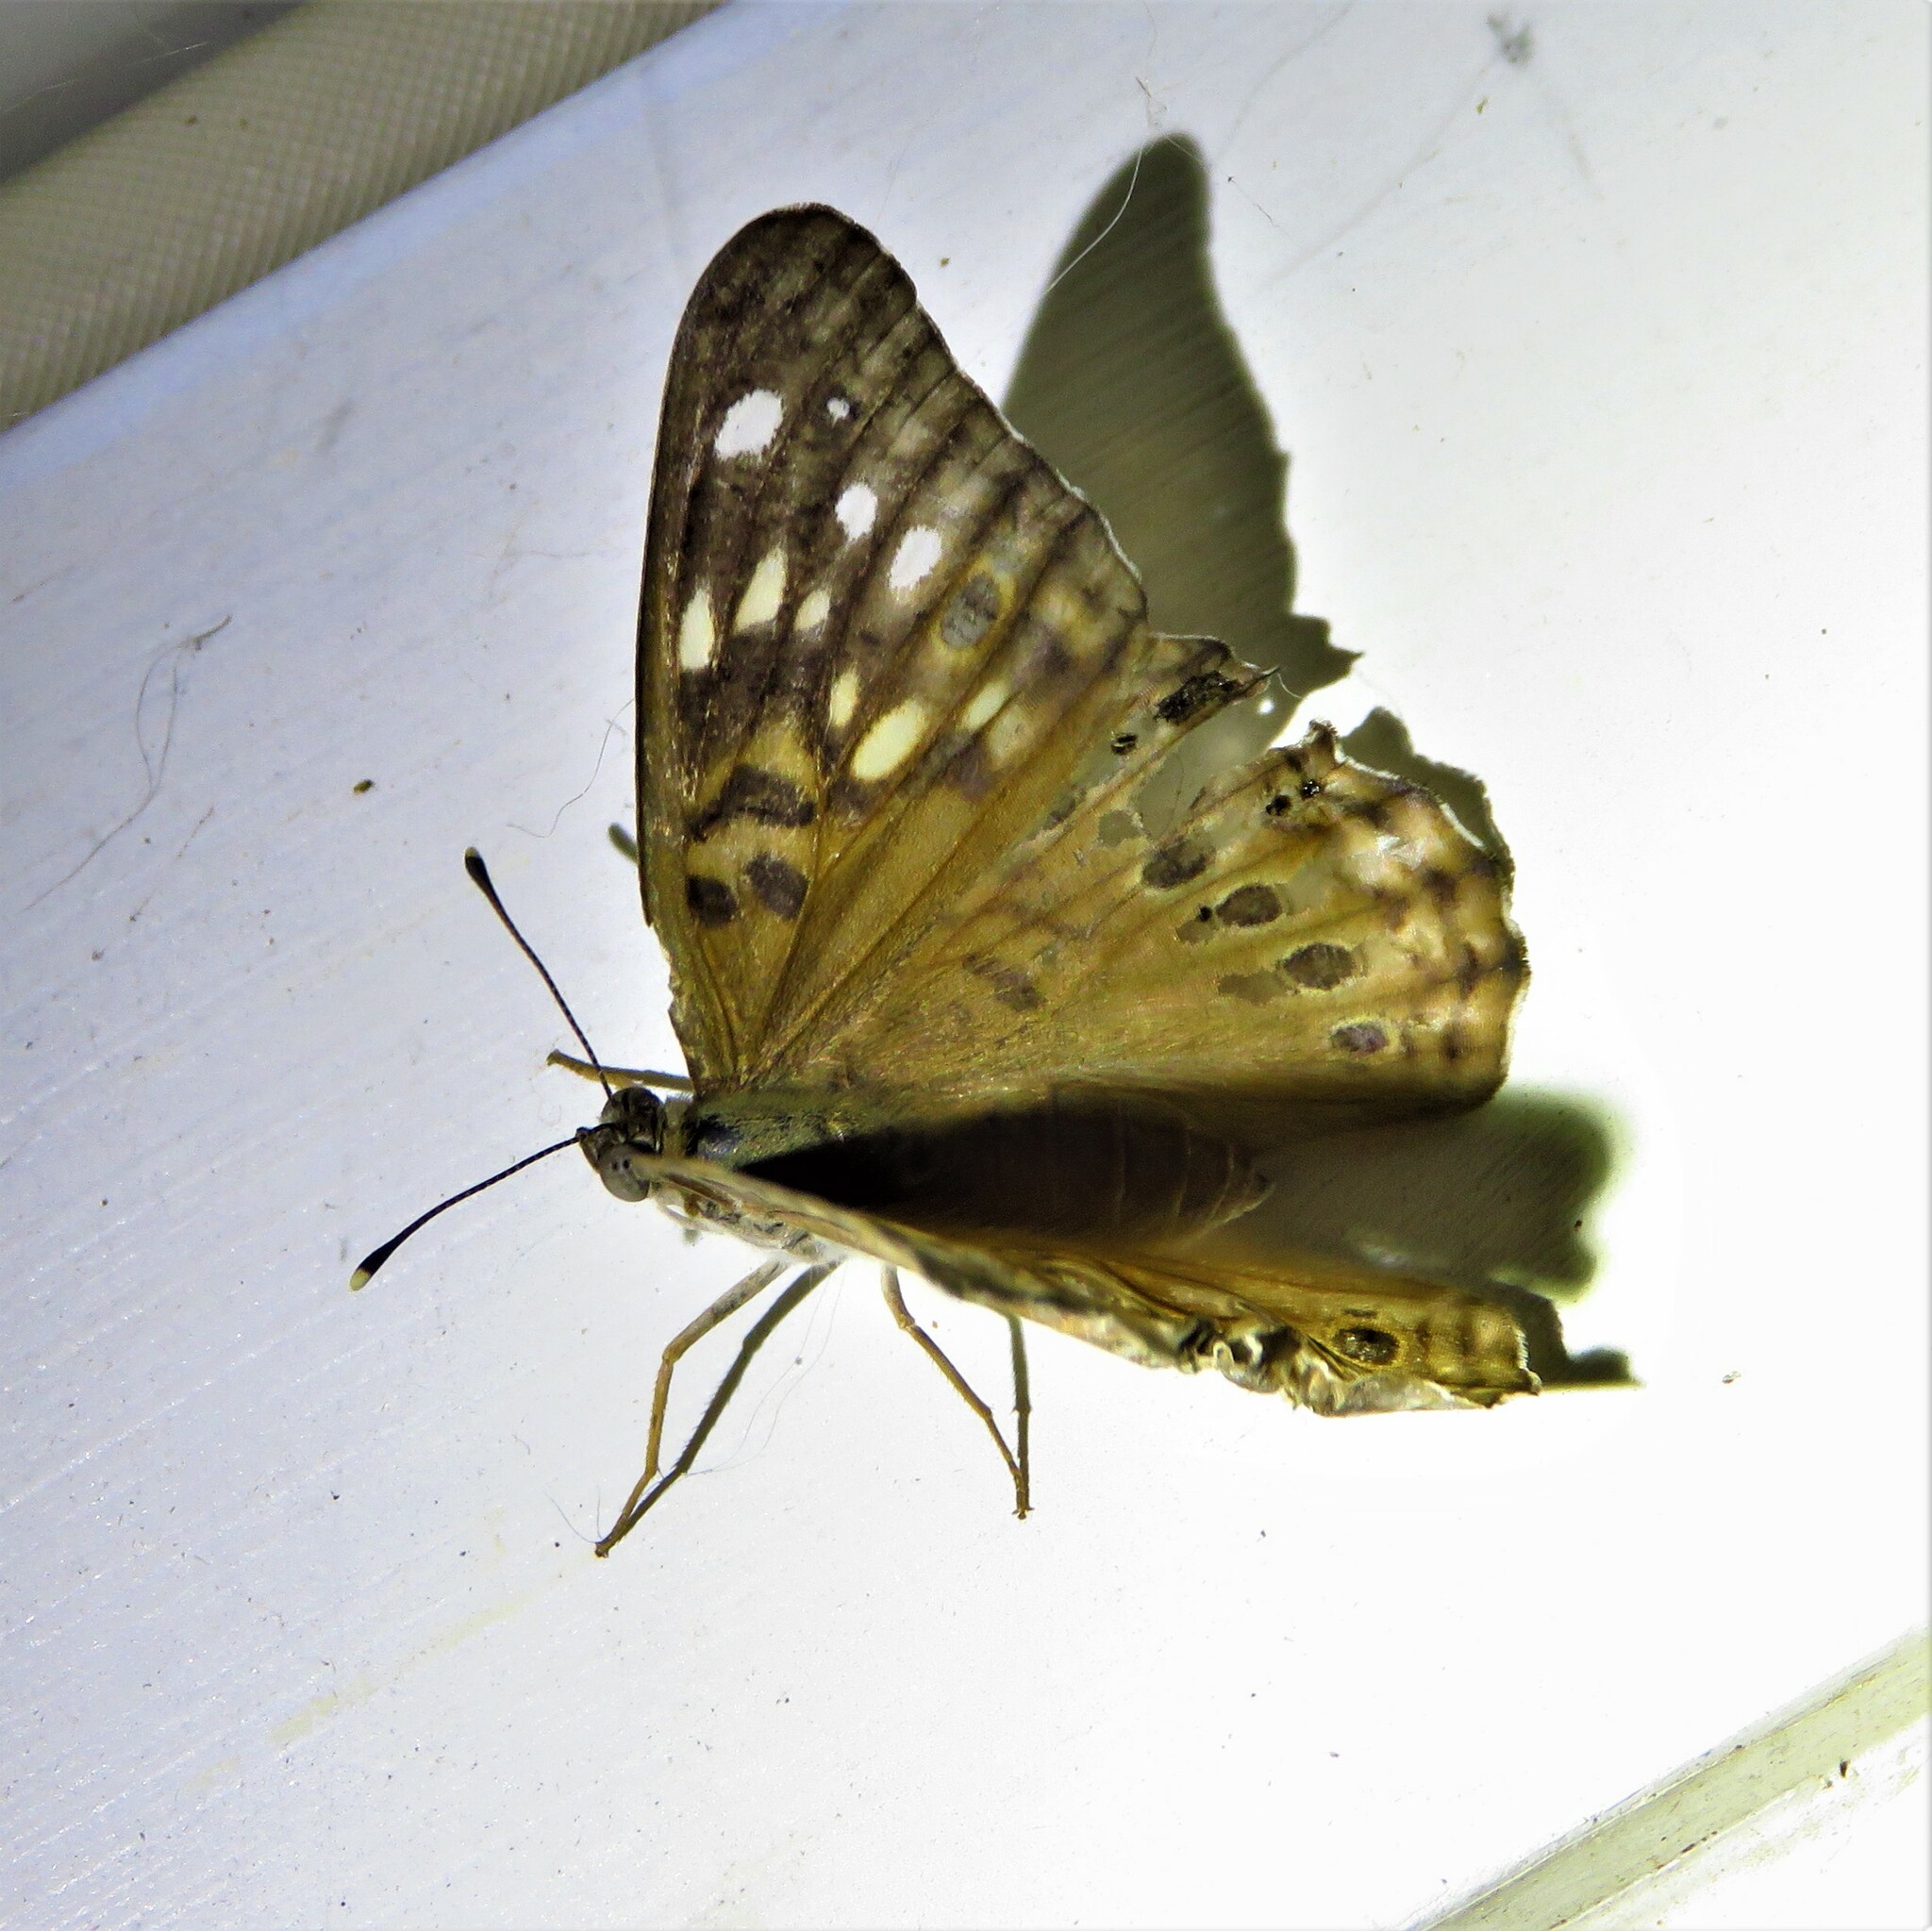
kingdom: Animalia
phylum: Arthropoda
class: Insecta
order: Lepidoptera
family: Nymphalidae
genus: Asterocampa
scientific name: Asterocampa celtis
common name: Hackberry emperor
